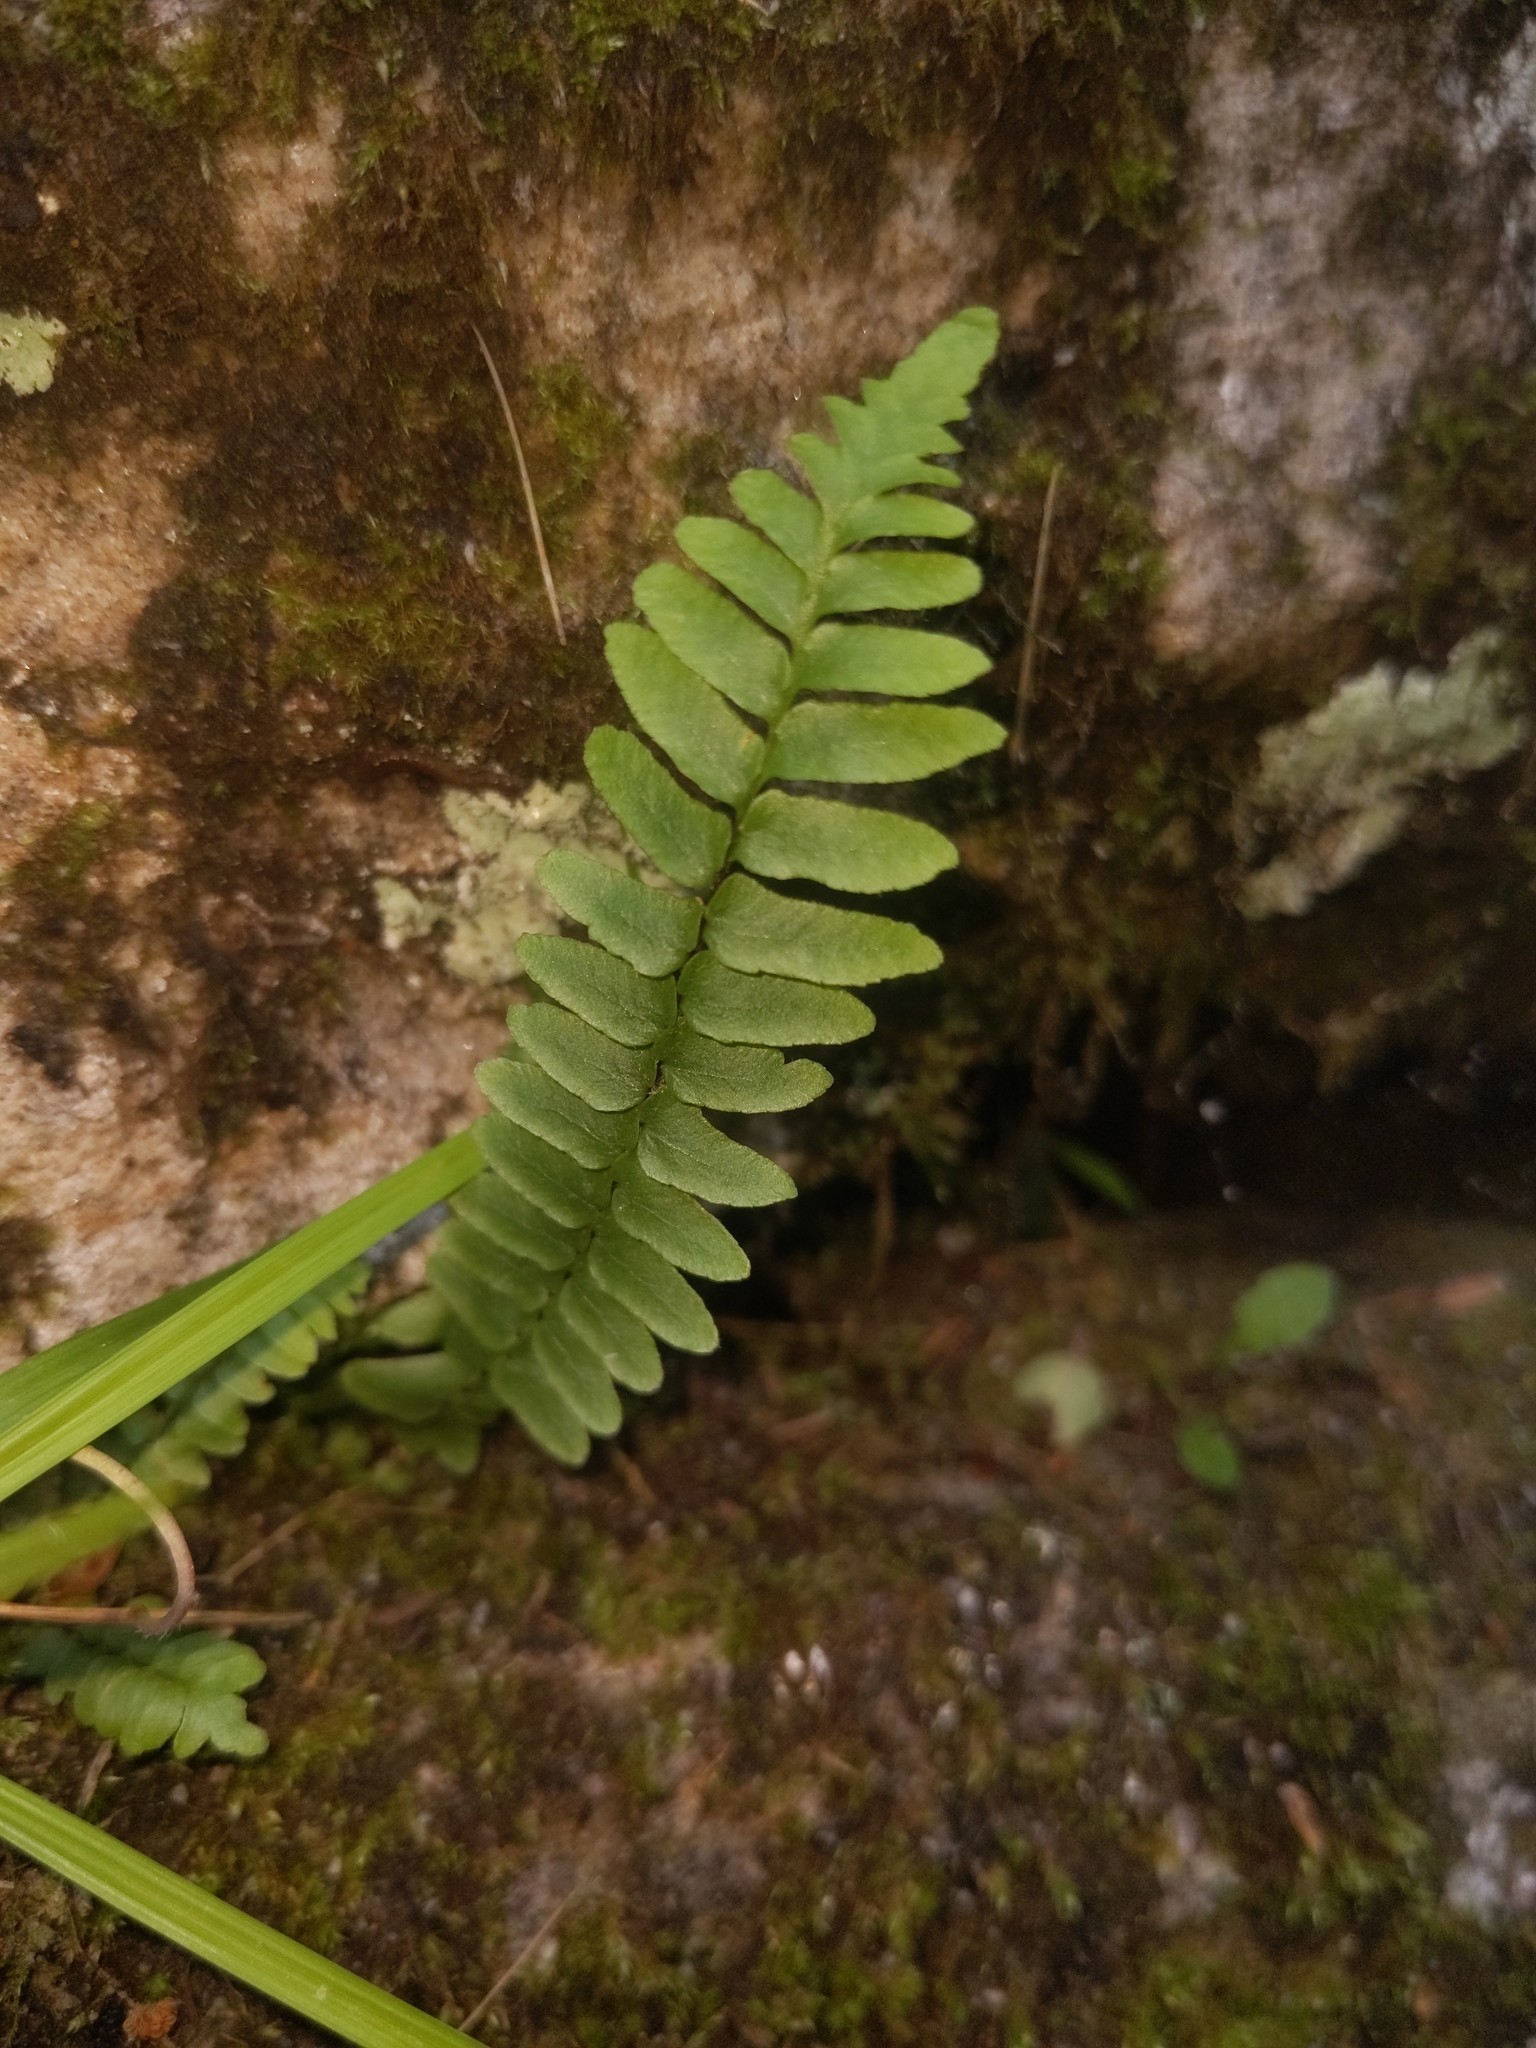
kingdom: Plantae
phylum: Tracheophyta
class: Polypodiopsida
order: Polypodiales
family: Aspleniaceae
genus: Asplenium
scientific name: Asplenium platyneuron
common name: Ebony spleenwort
